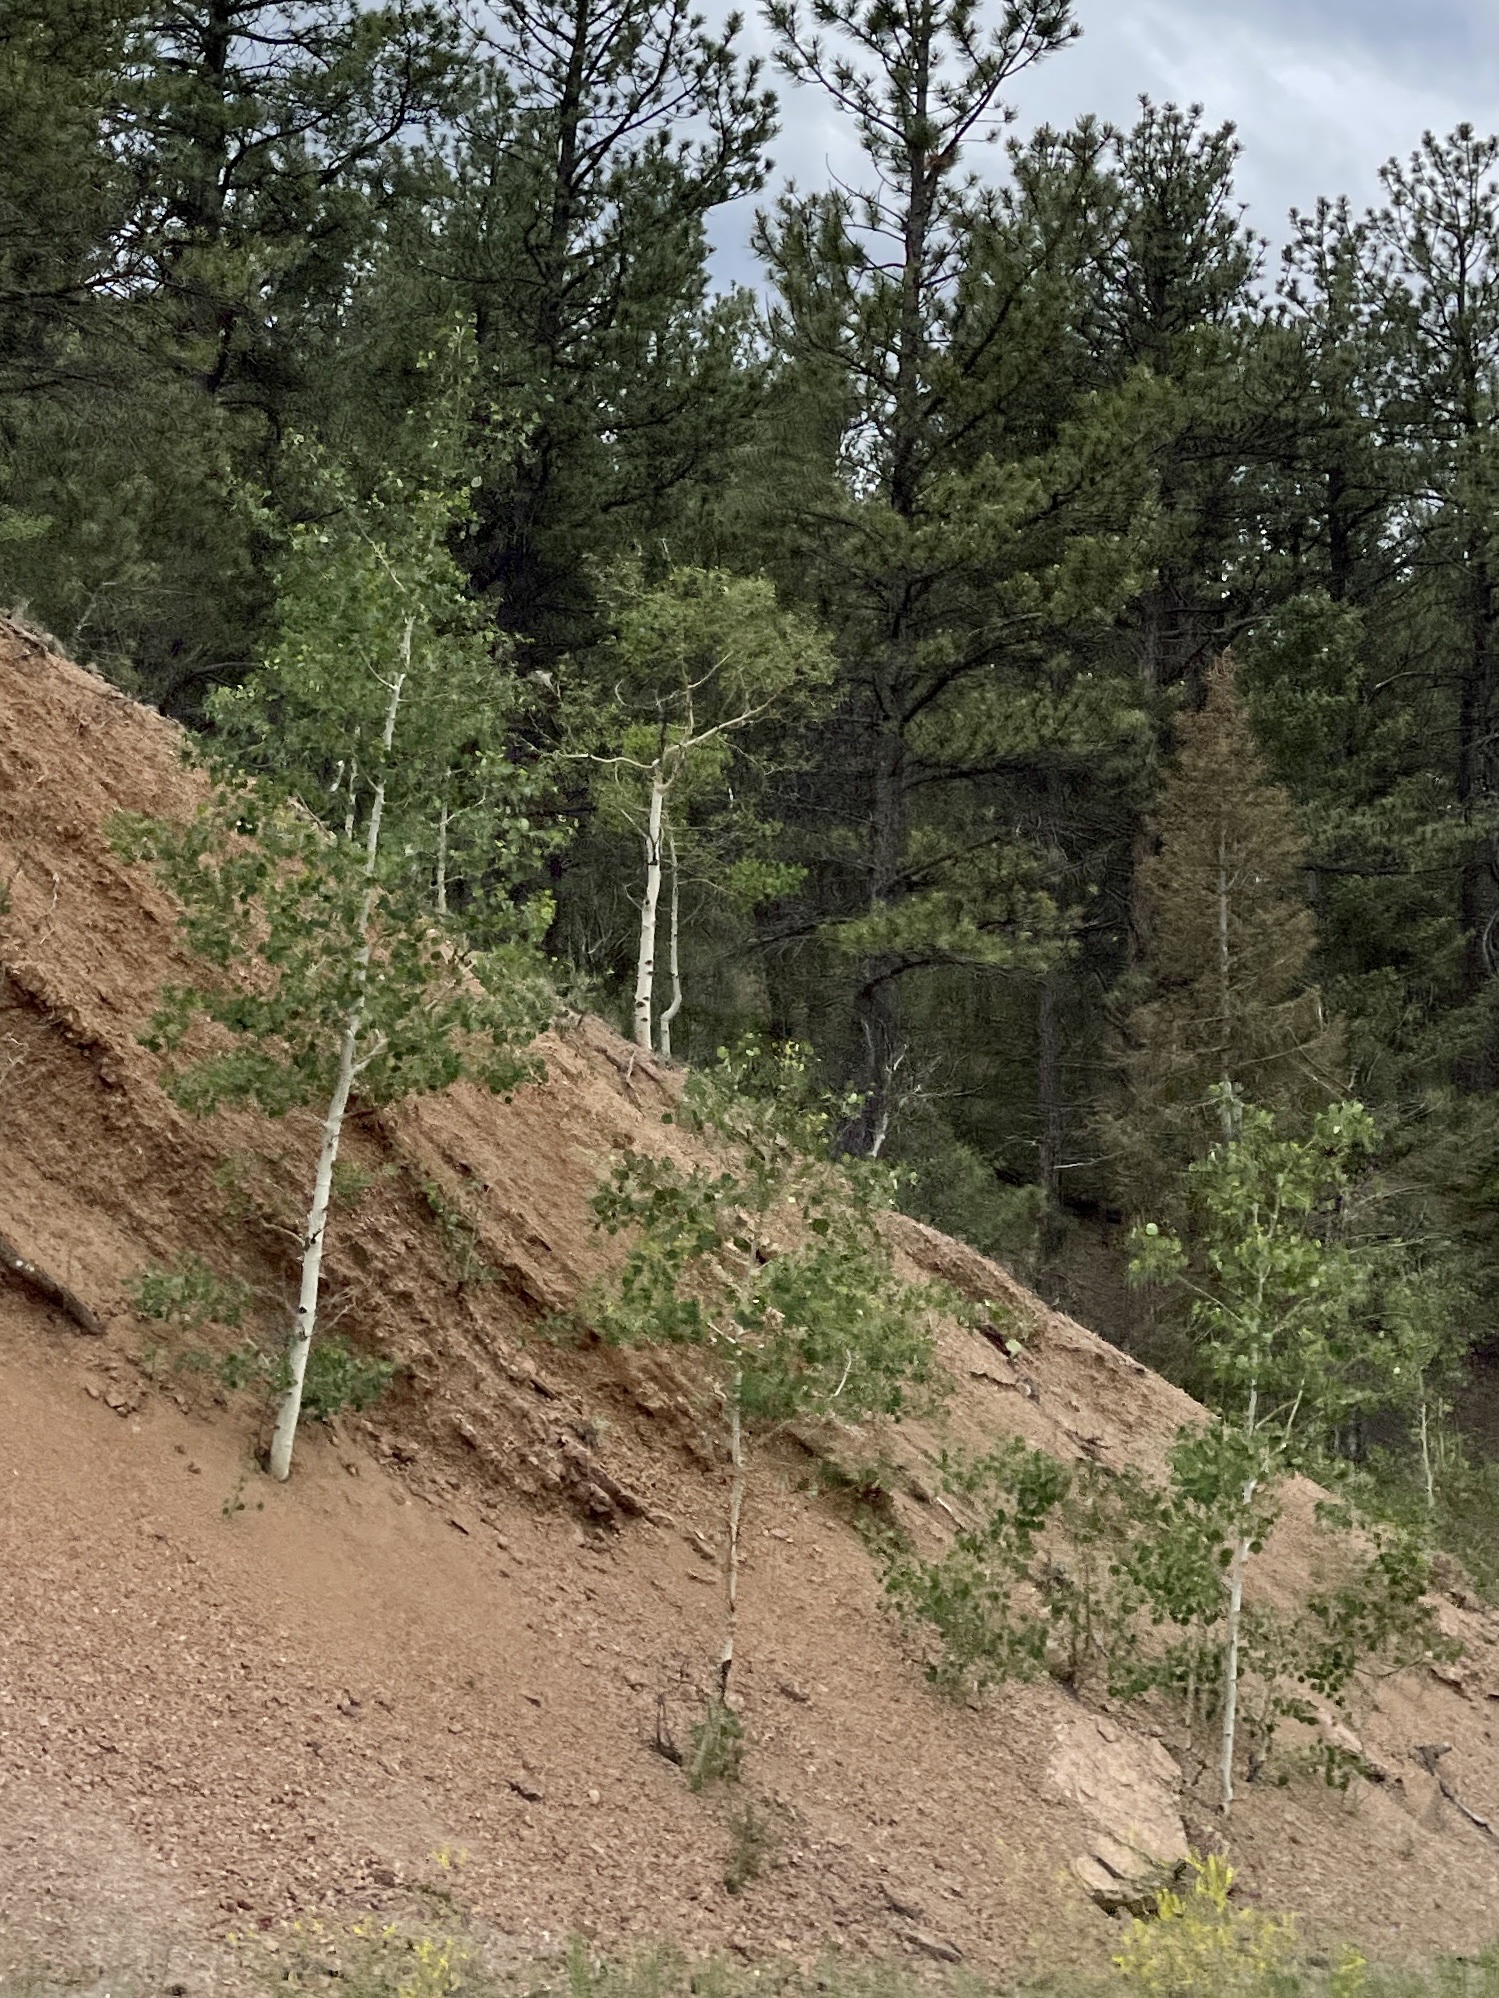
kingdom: Plantae
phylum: Tracheophyta
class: Magnoliopsida
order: Malpighiales
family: Salicaceae
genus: Populus
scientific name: Populus tremuloides
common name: Quaking aspen
